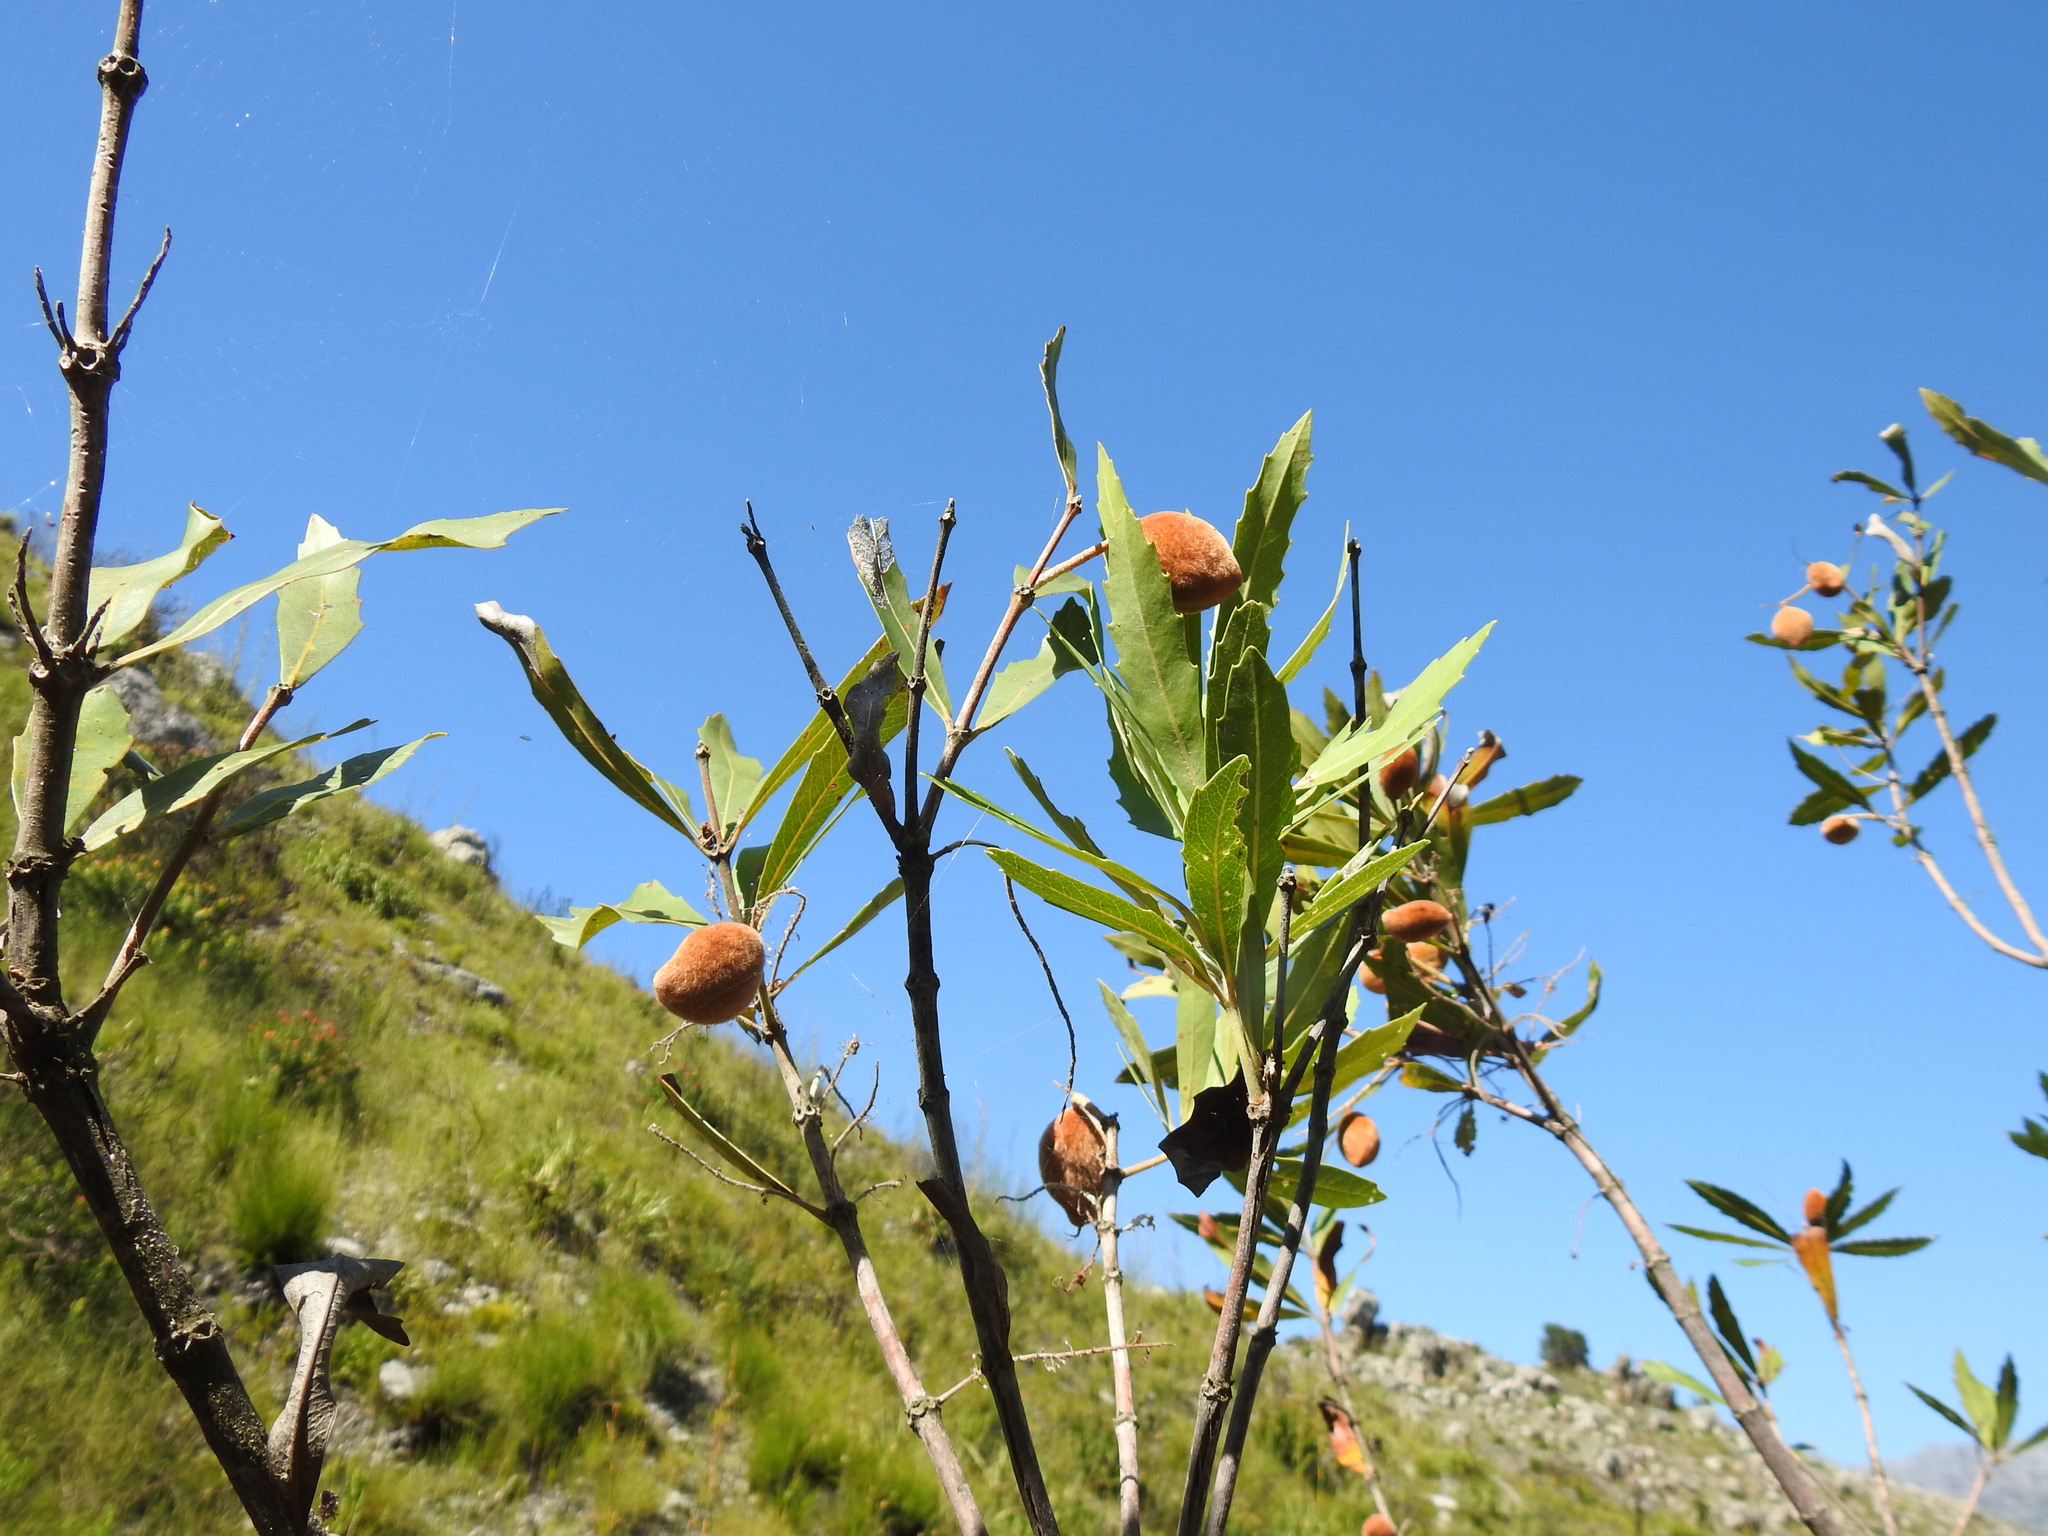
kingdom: Plantae
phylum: Tracheophyta
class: Magnoliopsida
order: Proteales
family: Proteaceae
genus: Brabejum
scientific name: Brabejum stellatifolium
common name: Wild almond
